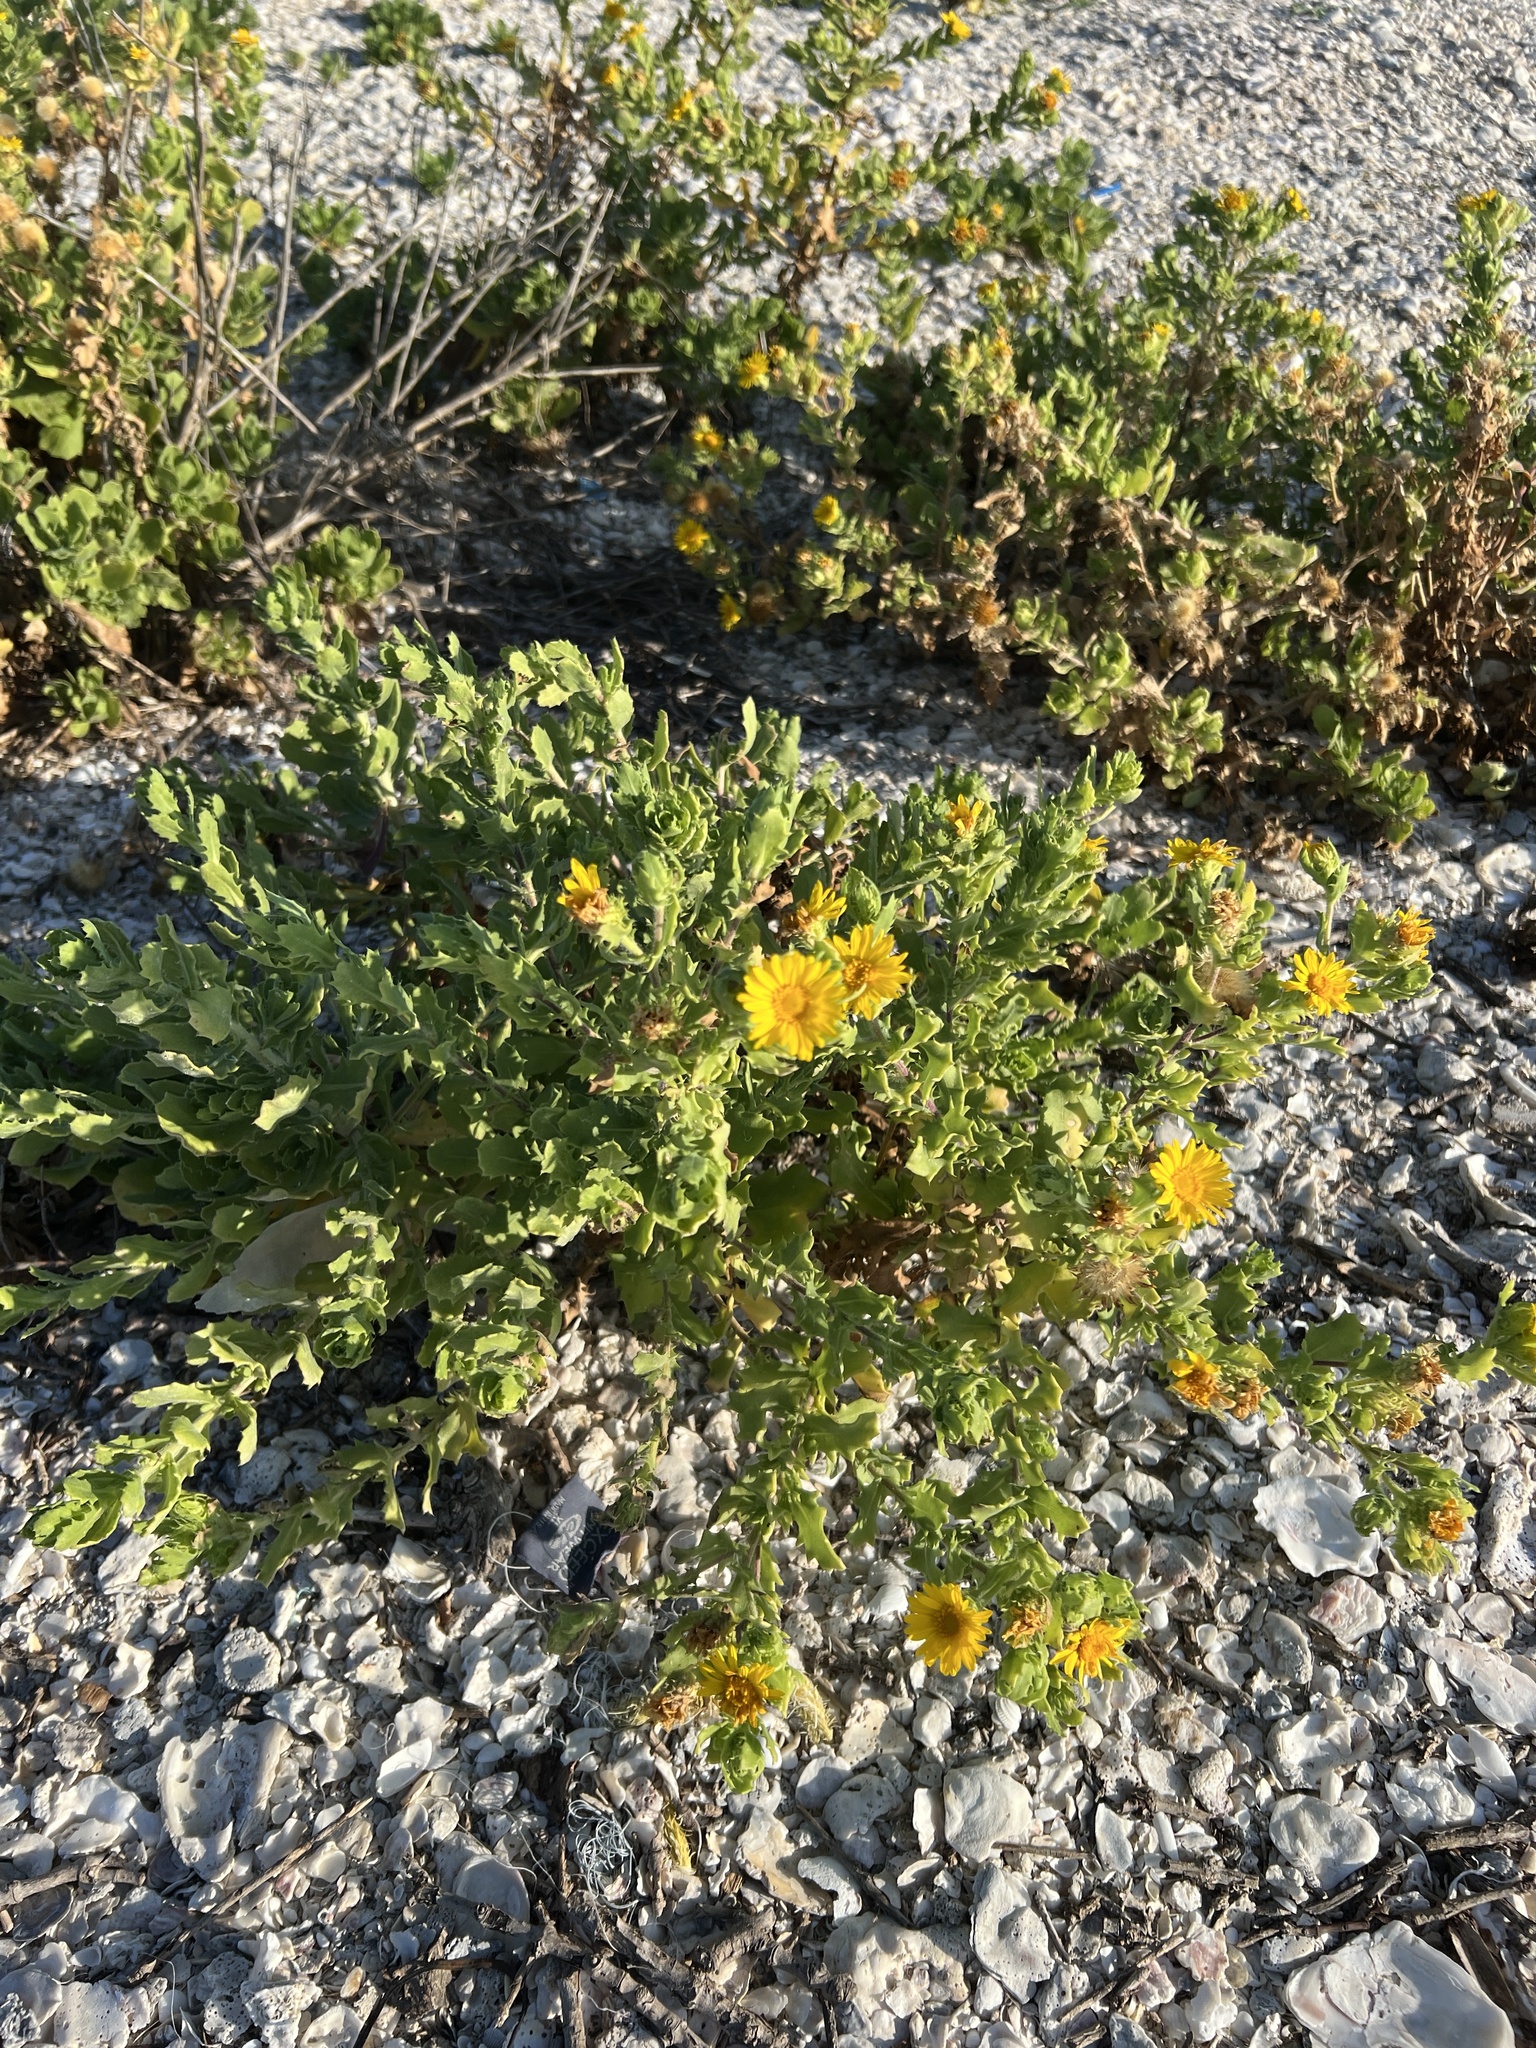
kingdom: Plantae
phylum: Tracheophyta
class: Magnoliopsida
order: Asterales
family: Asteraceae
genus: Rayjacksonia
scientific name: Rayjacksonia phyllocephala
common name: Gulf coast camphor daisy
